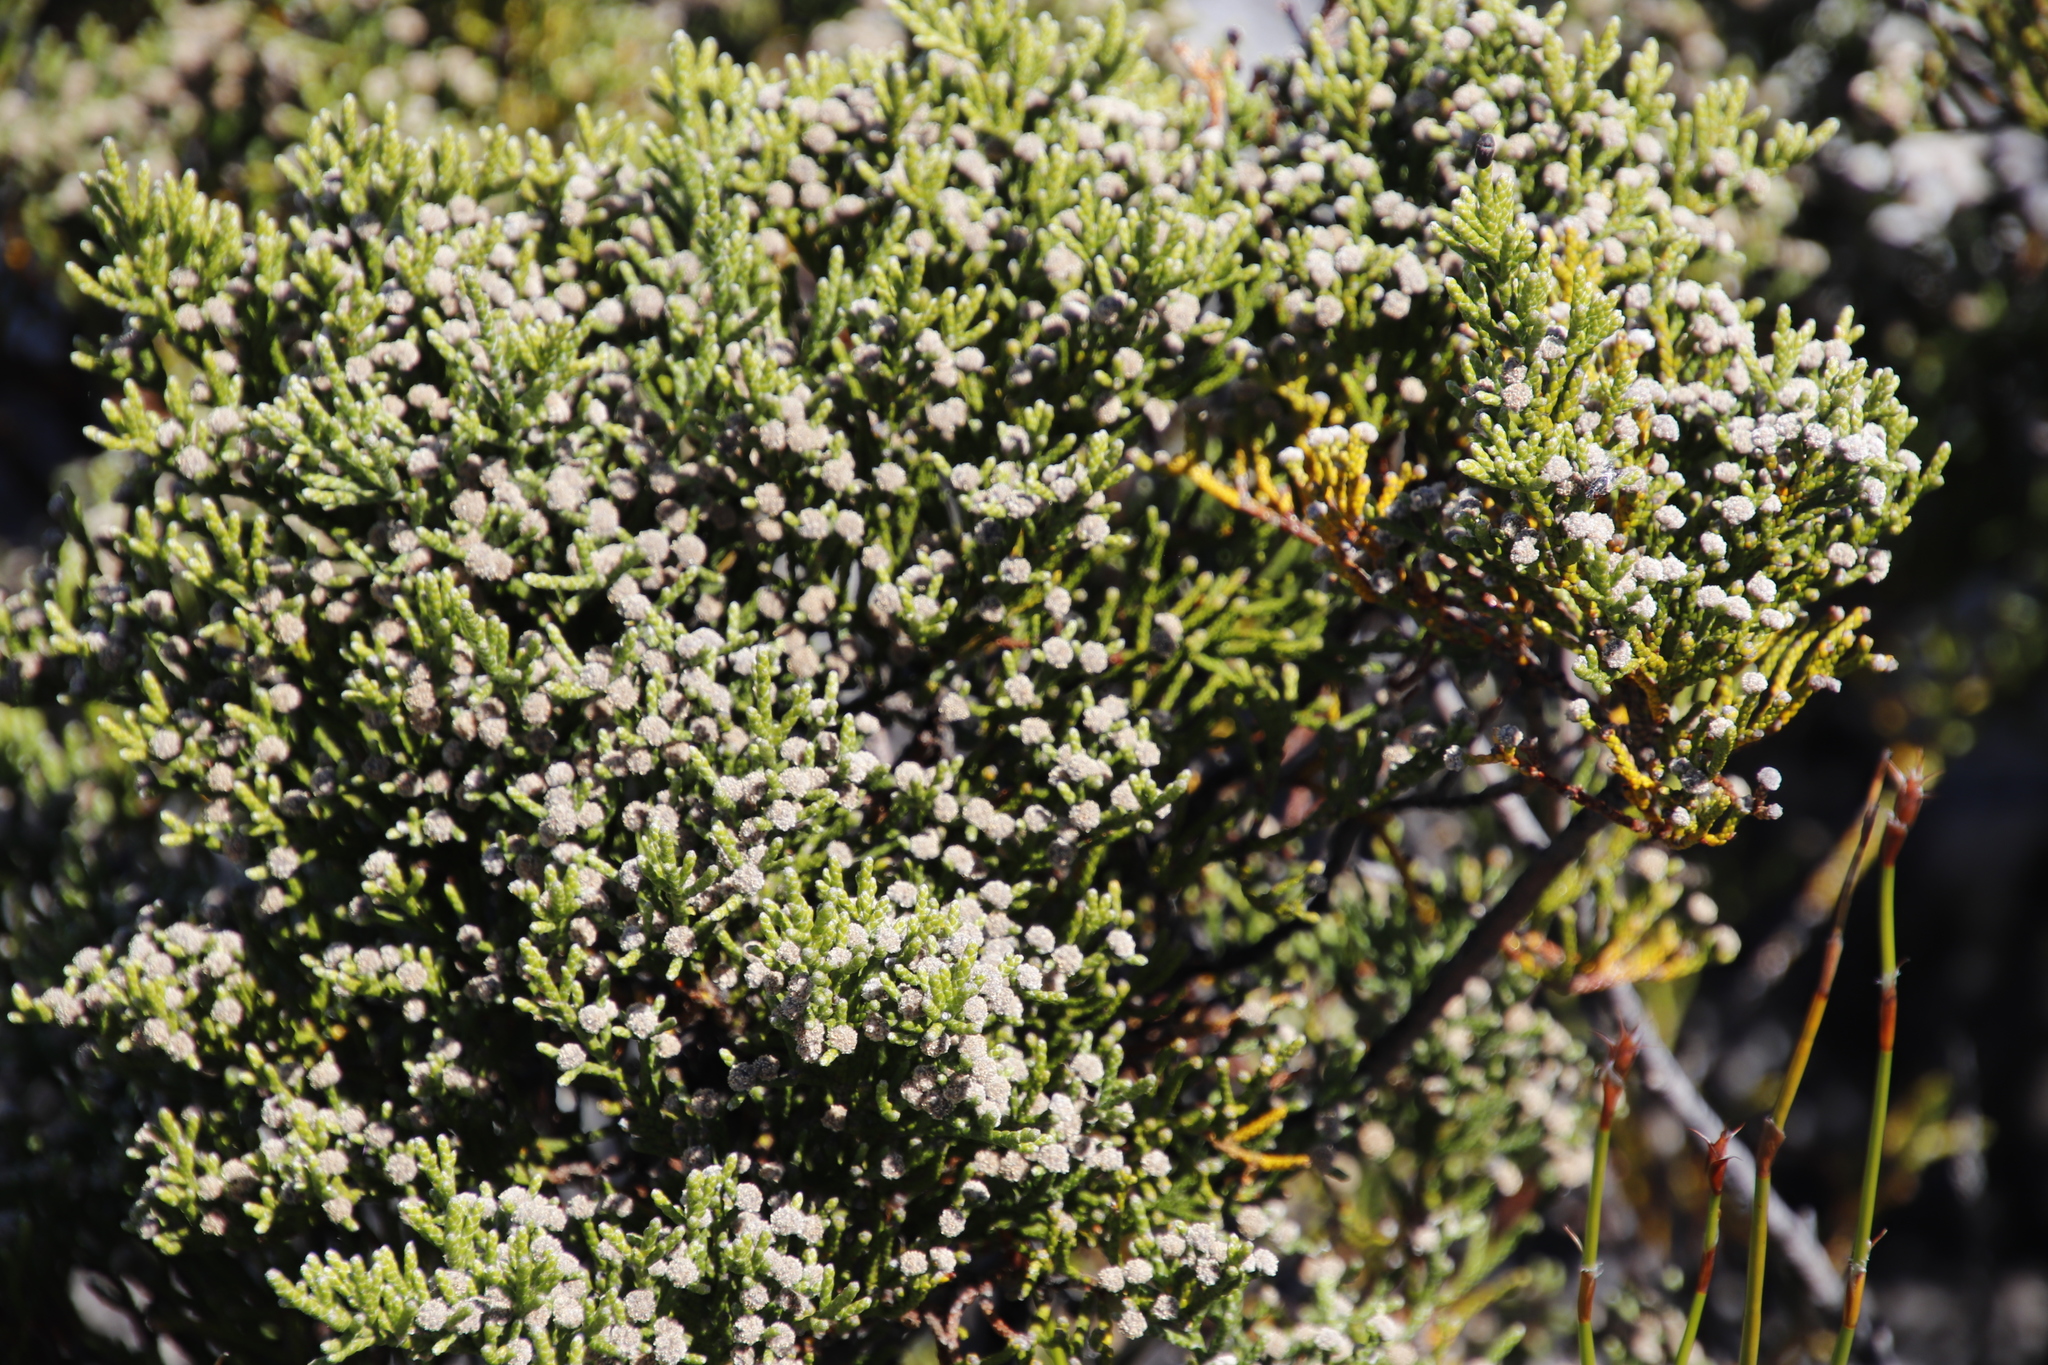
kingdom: Plantae
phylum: Tracheophyta
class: Magnoliopsida
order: Bruniales
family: Bruniaceae
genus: Brunia
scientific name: Brunia microphylla
